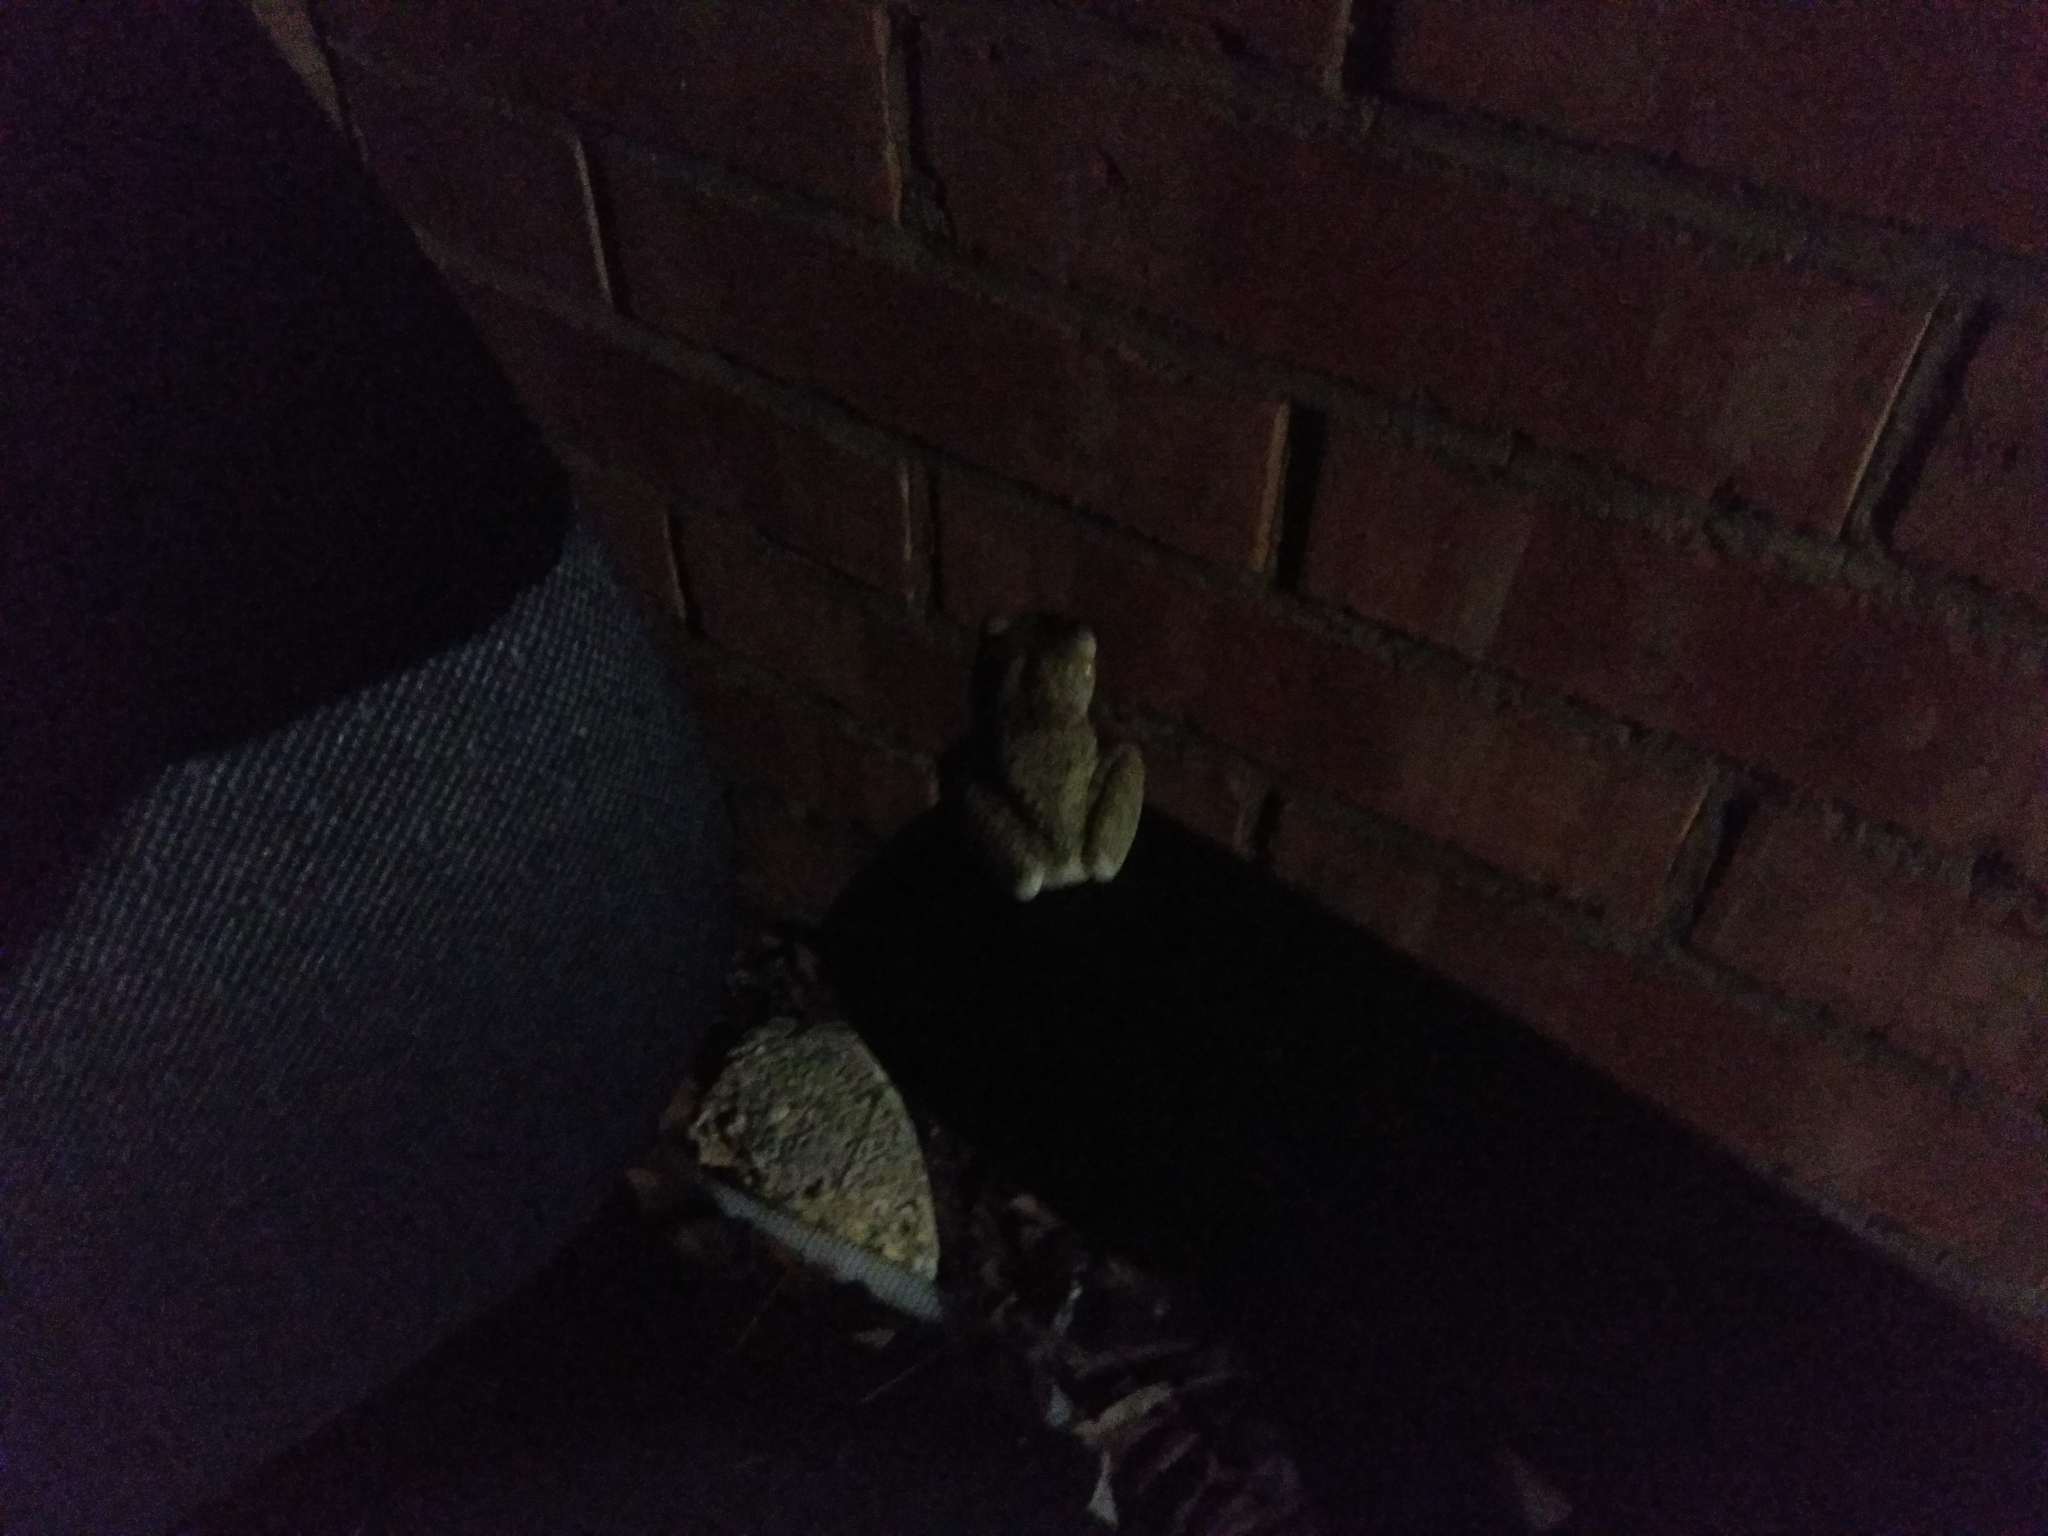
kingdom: Animalia
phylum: Chordata
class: Amphibia
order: Anura
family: Hylidae
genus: Osteopilus
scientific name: Osteopilus septentrionalis
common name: Cuban treefrog
